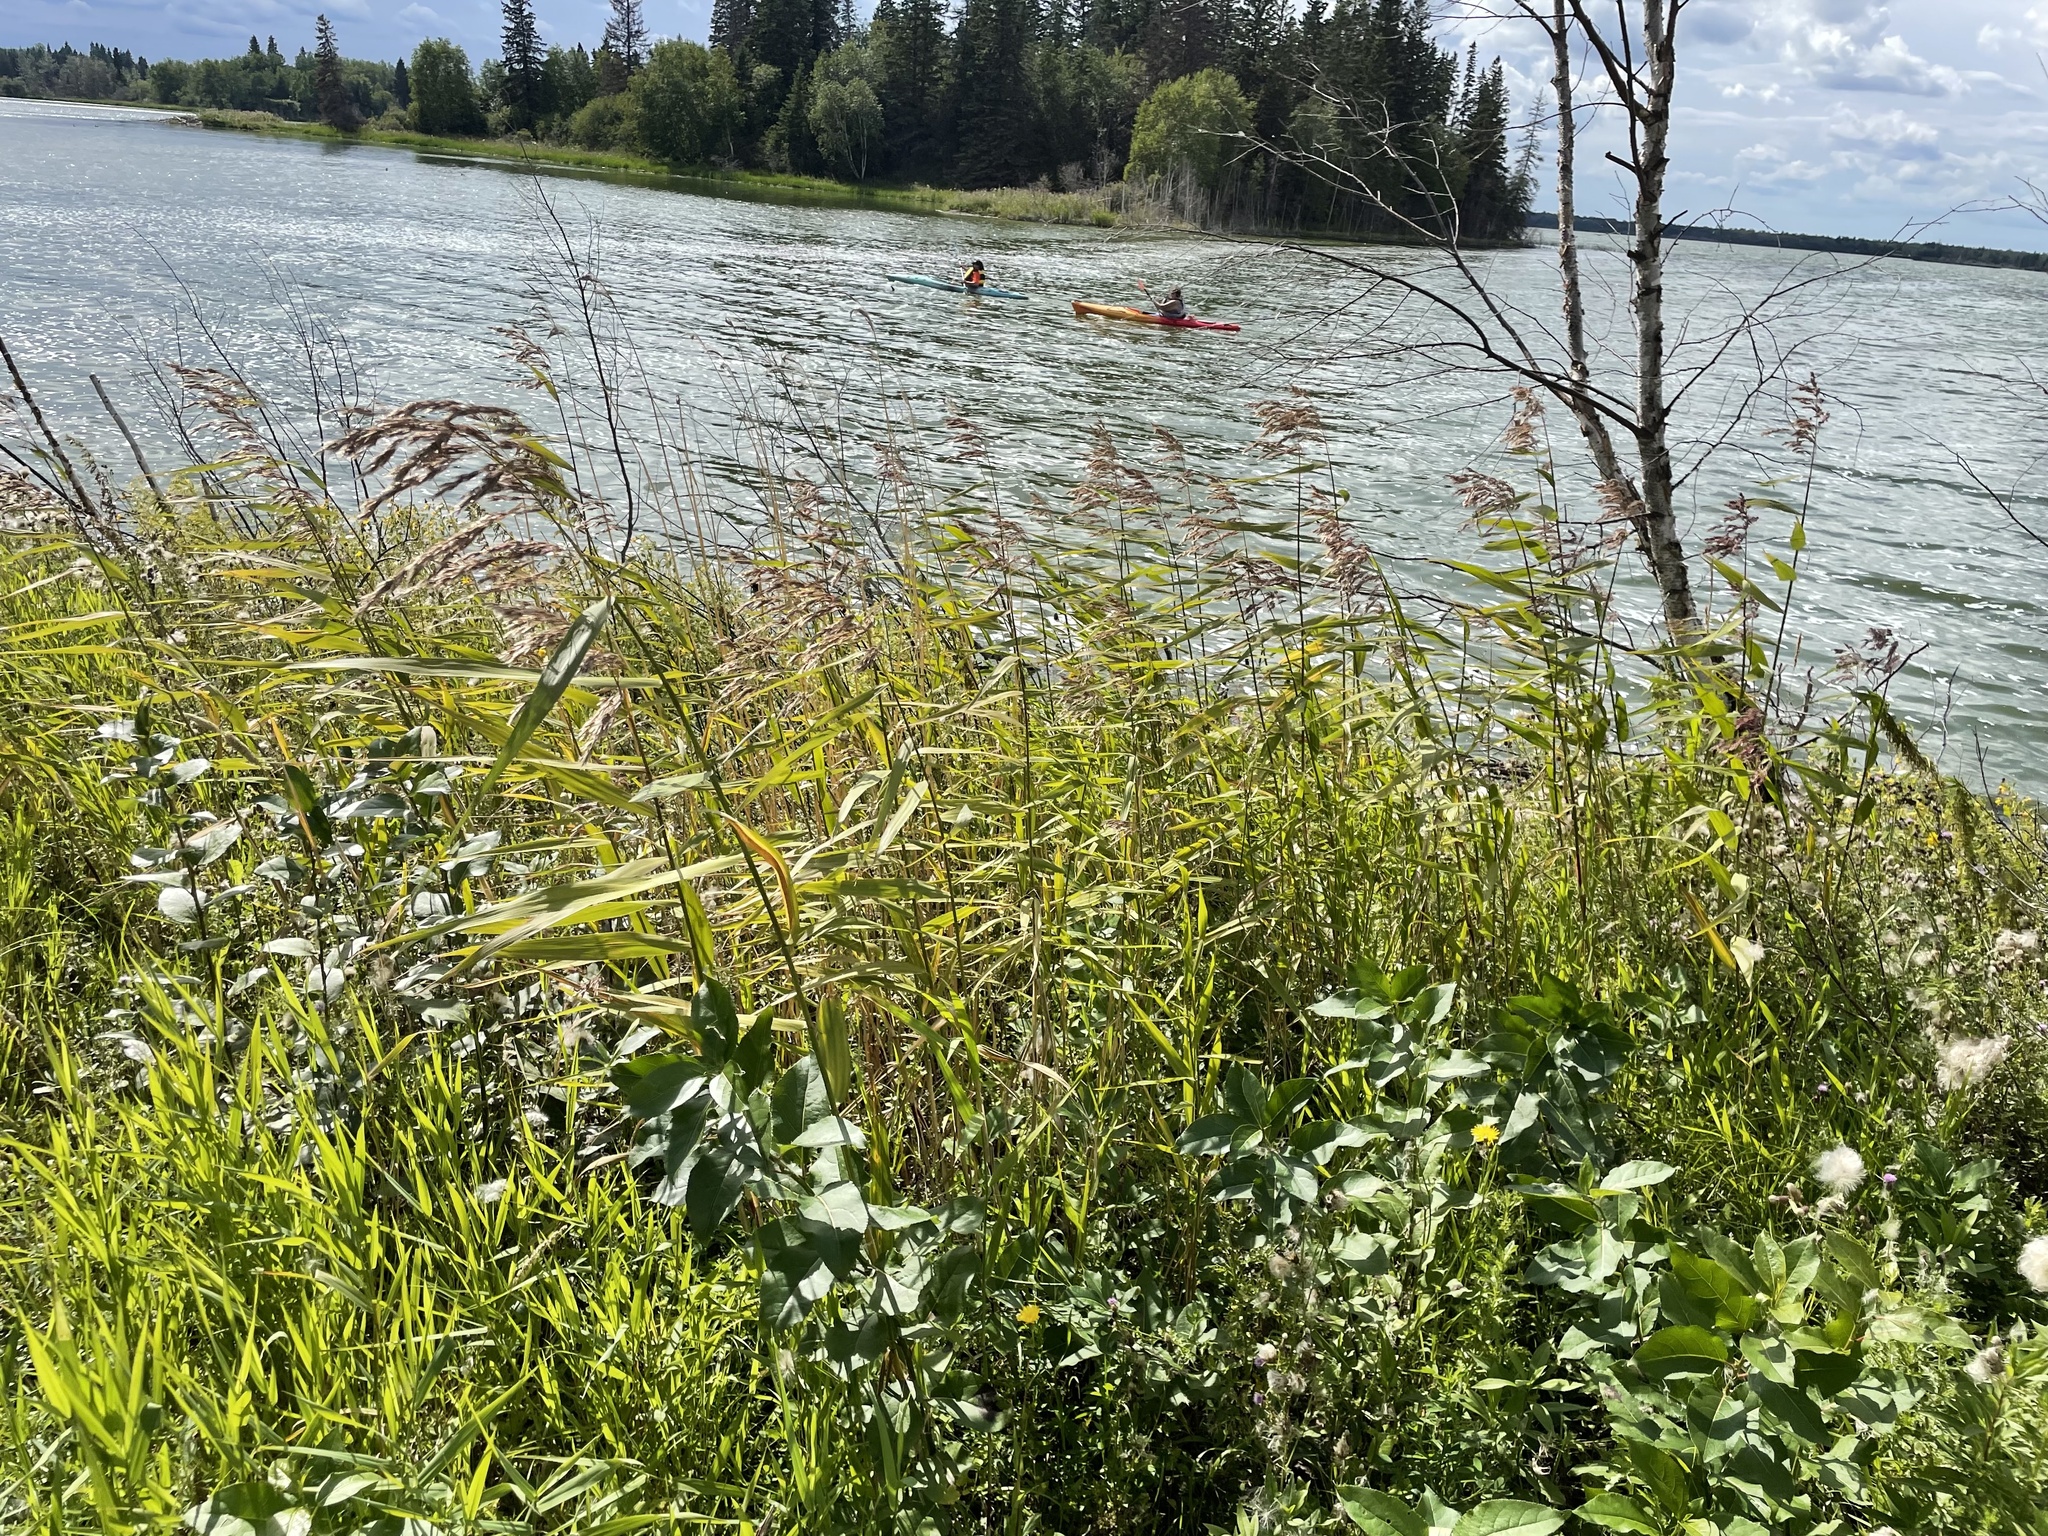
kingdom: Plantae
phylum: Tracheophyta
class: Liliopsida
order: Poales
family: Poaceae
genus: Phragmites
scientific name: Phragmites australis
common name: Common reed
